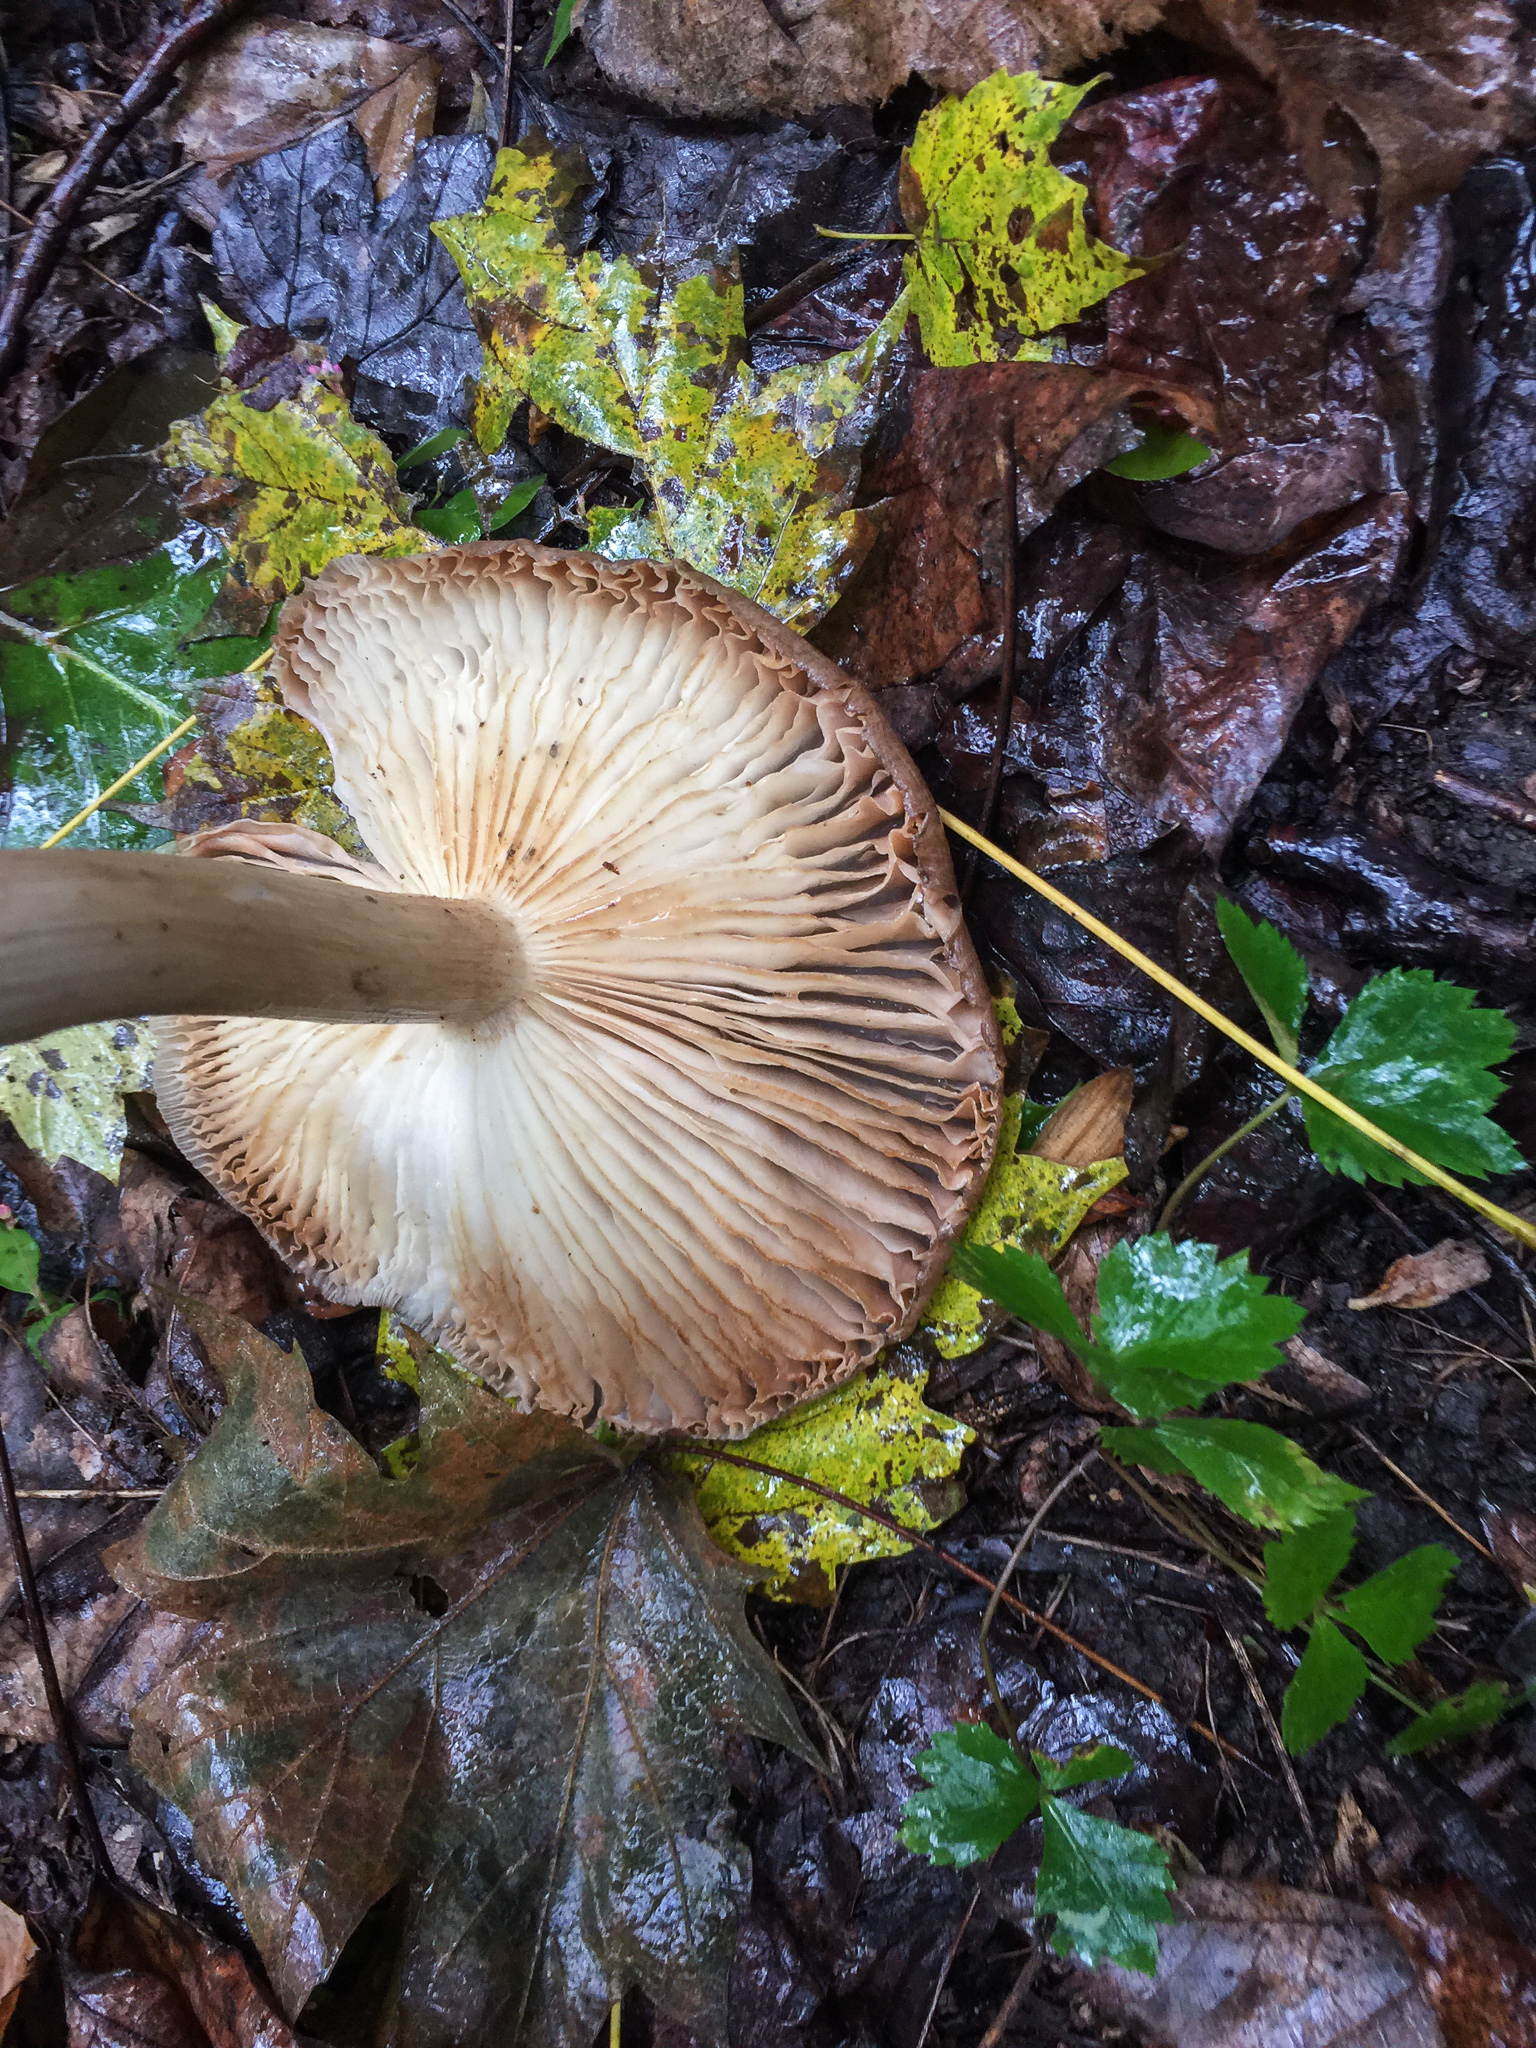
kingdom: Fungi
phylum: Basidiomycota
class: Agaricomycetes
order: Agaricales
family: Tricholomataceae
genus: Megacollybia
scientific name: Megacollybia rodmanii
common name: Eastern american platterful mushroom
